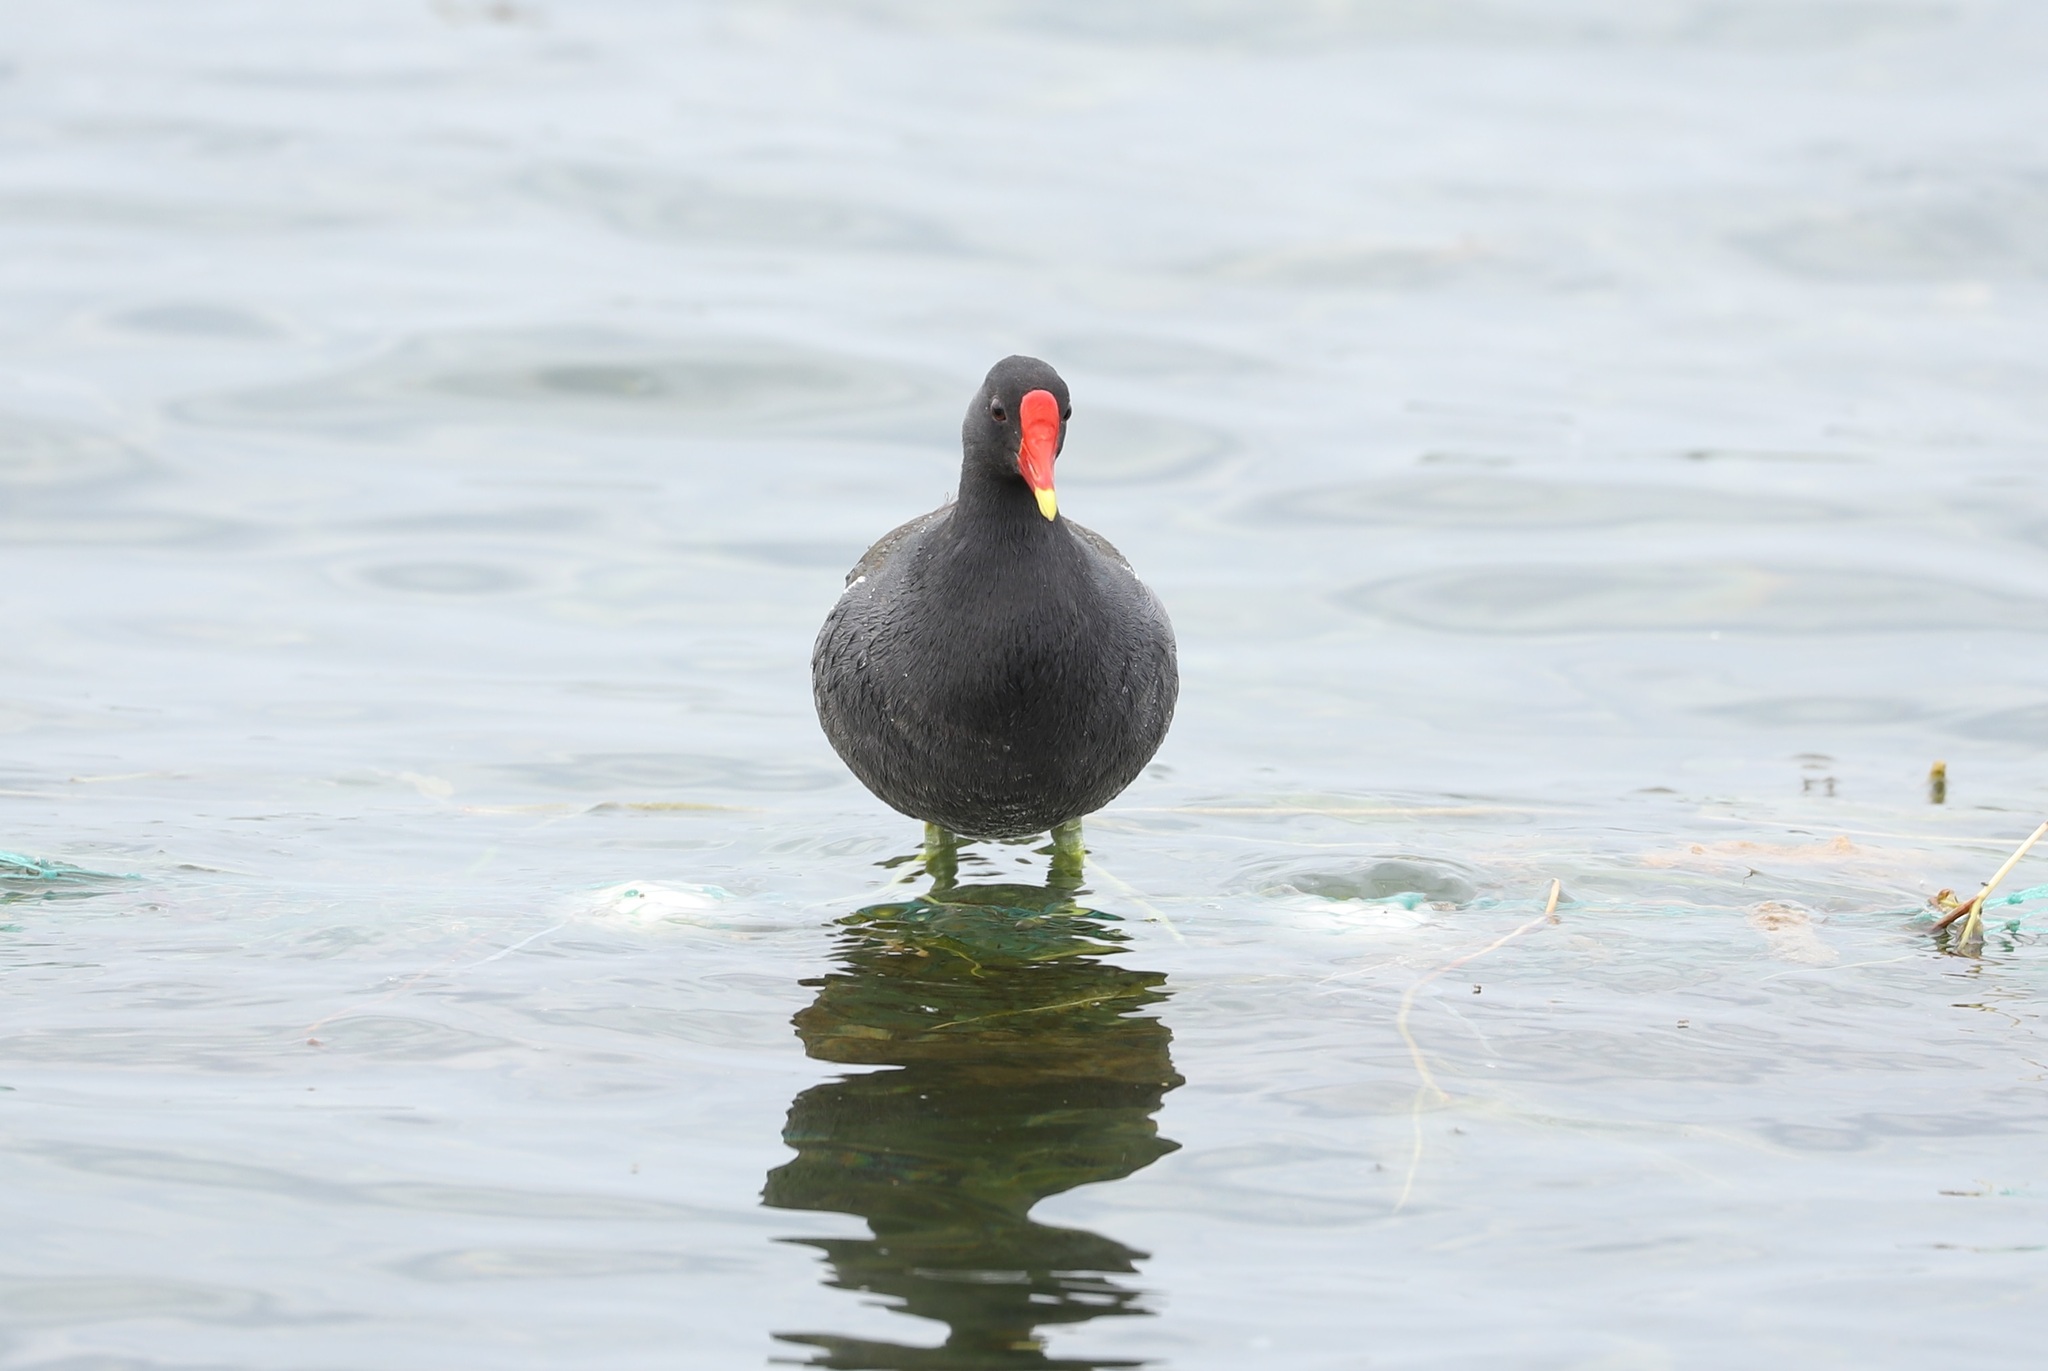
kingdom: Animalia
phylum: Chordata
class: Aves
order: Gruiformes
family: Rallidae
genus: Gallinula
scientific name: Gallinula chloropus
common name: Common moorhen
